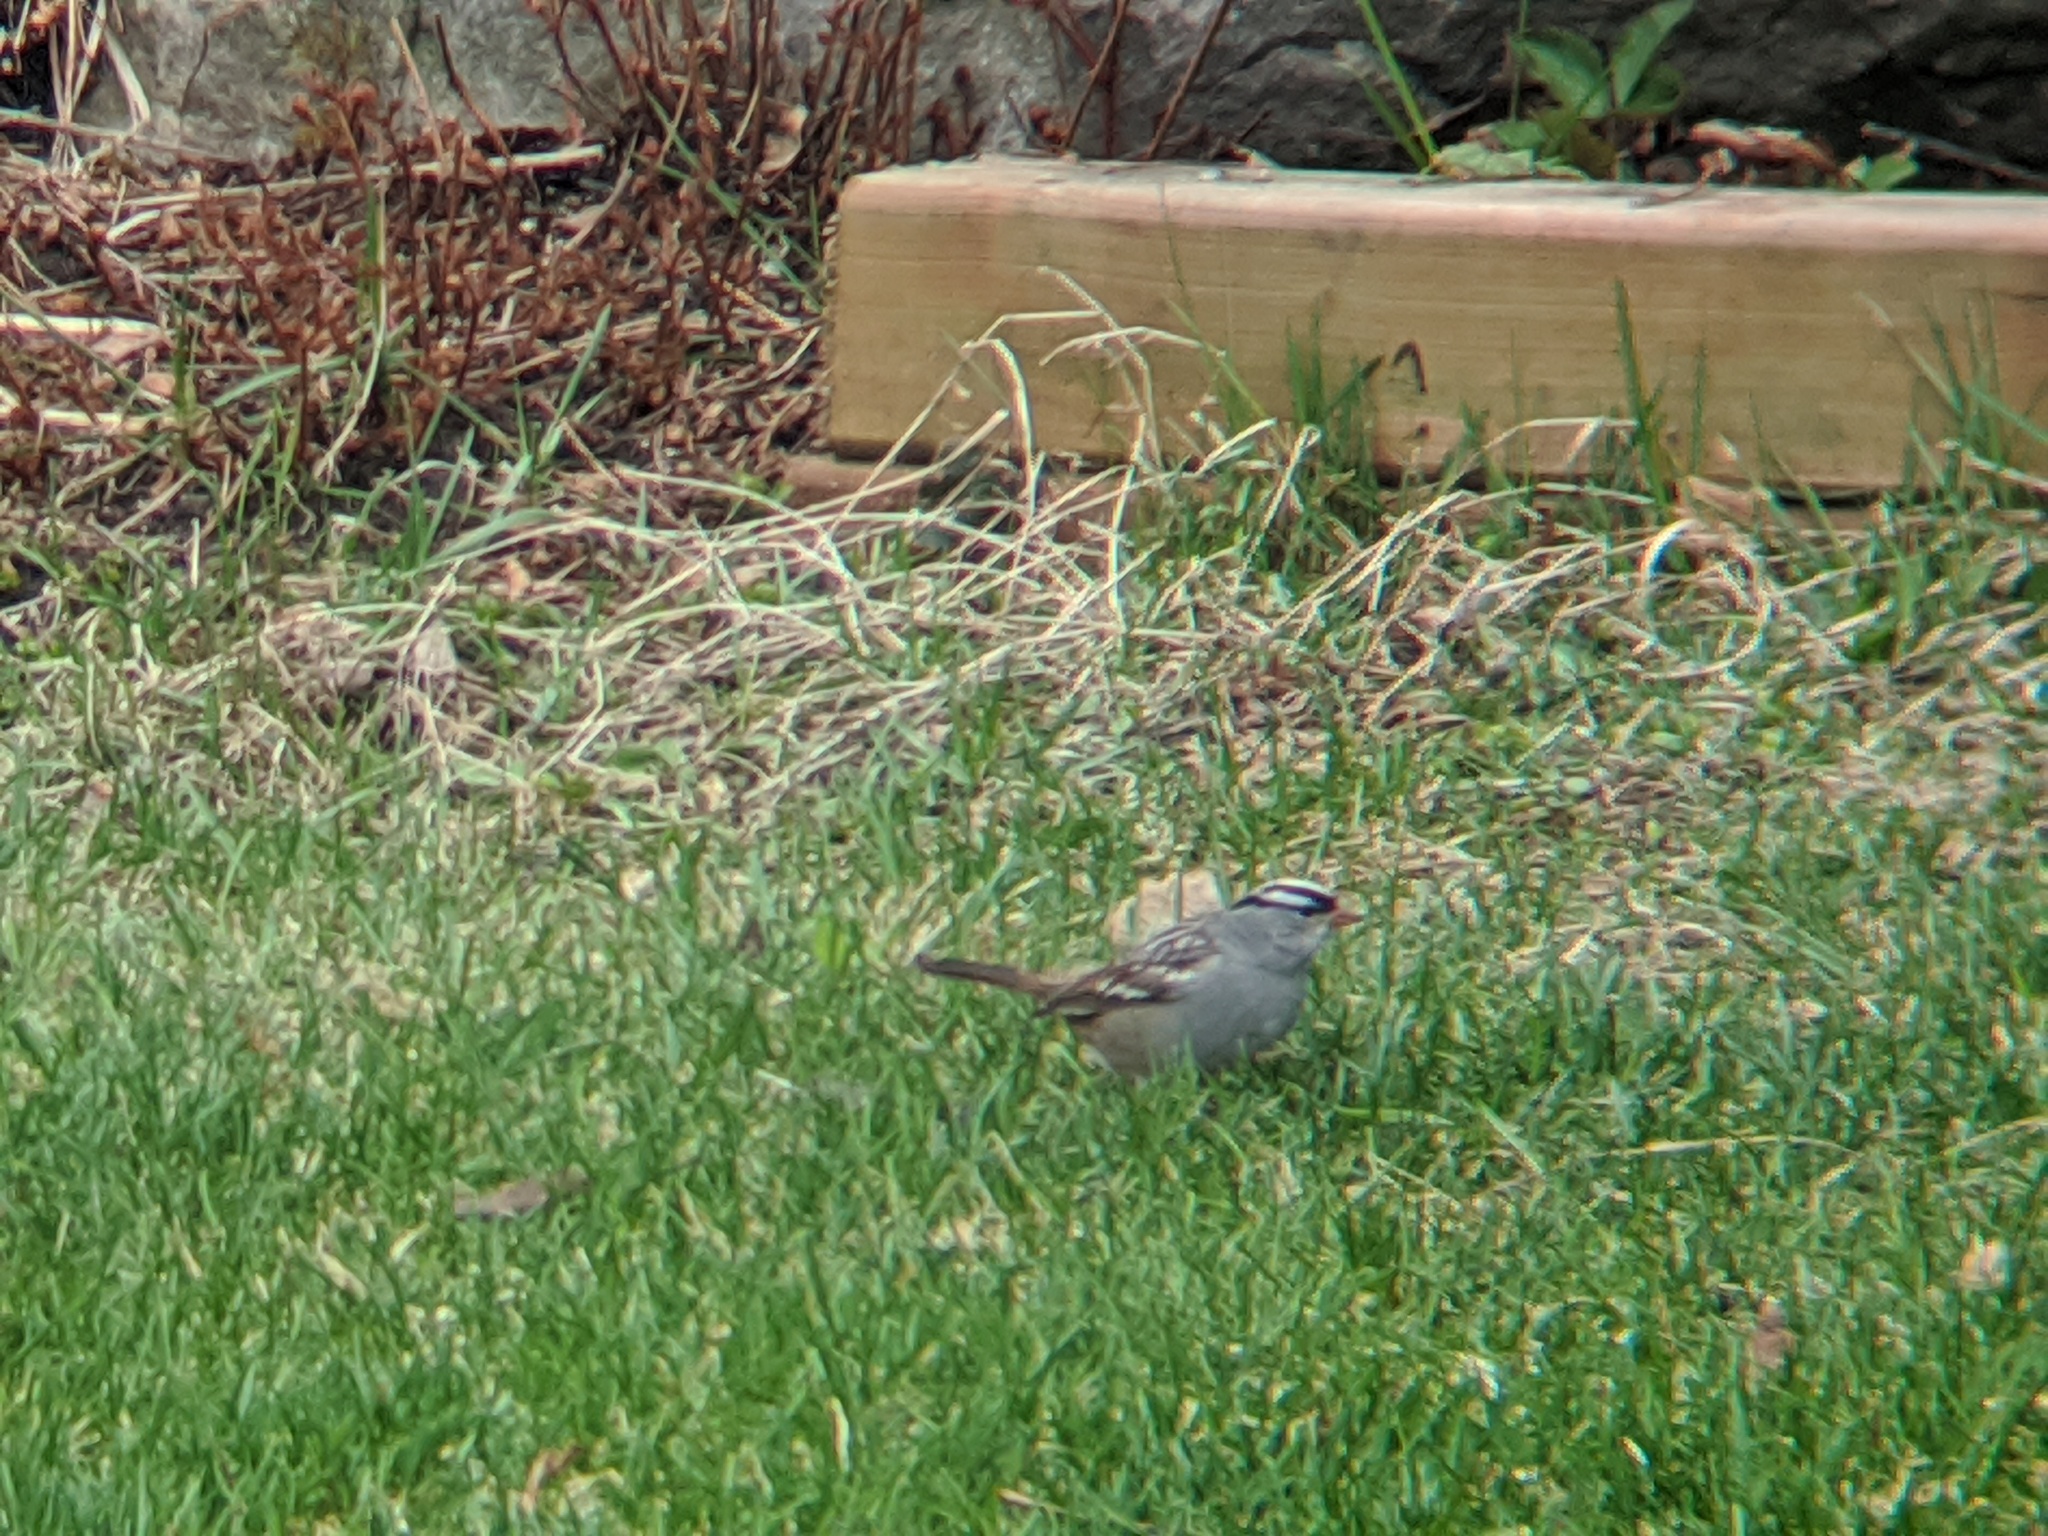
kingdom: Animalia
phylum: Chordata
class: Aves
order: Passeriformes
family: Passerellidae
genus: Zonotrichia
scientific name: Zonotrichia leucophrys
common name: White-crowned sparrow
